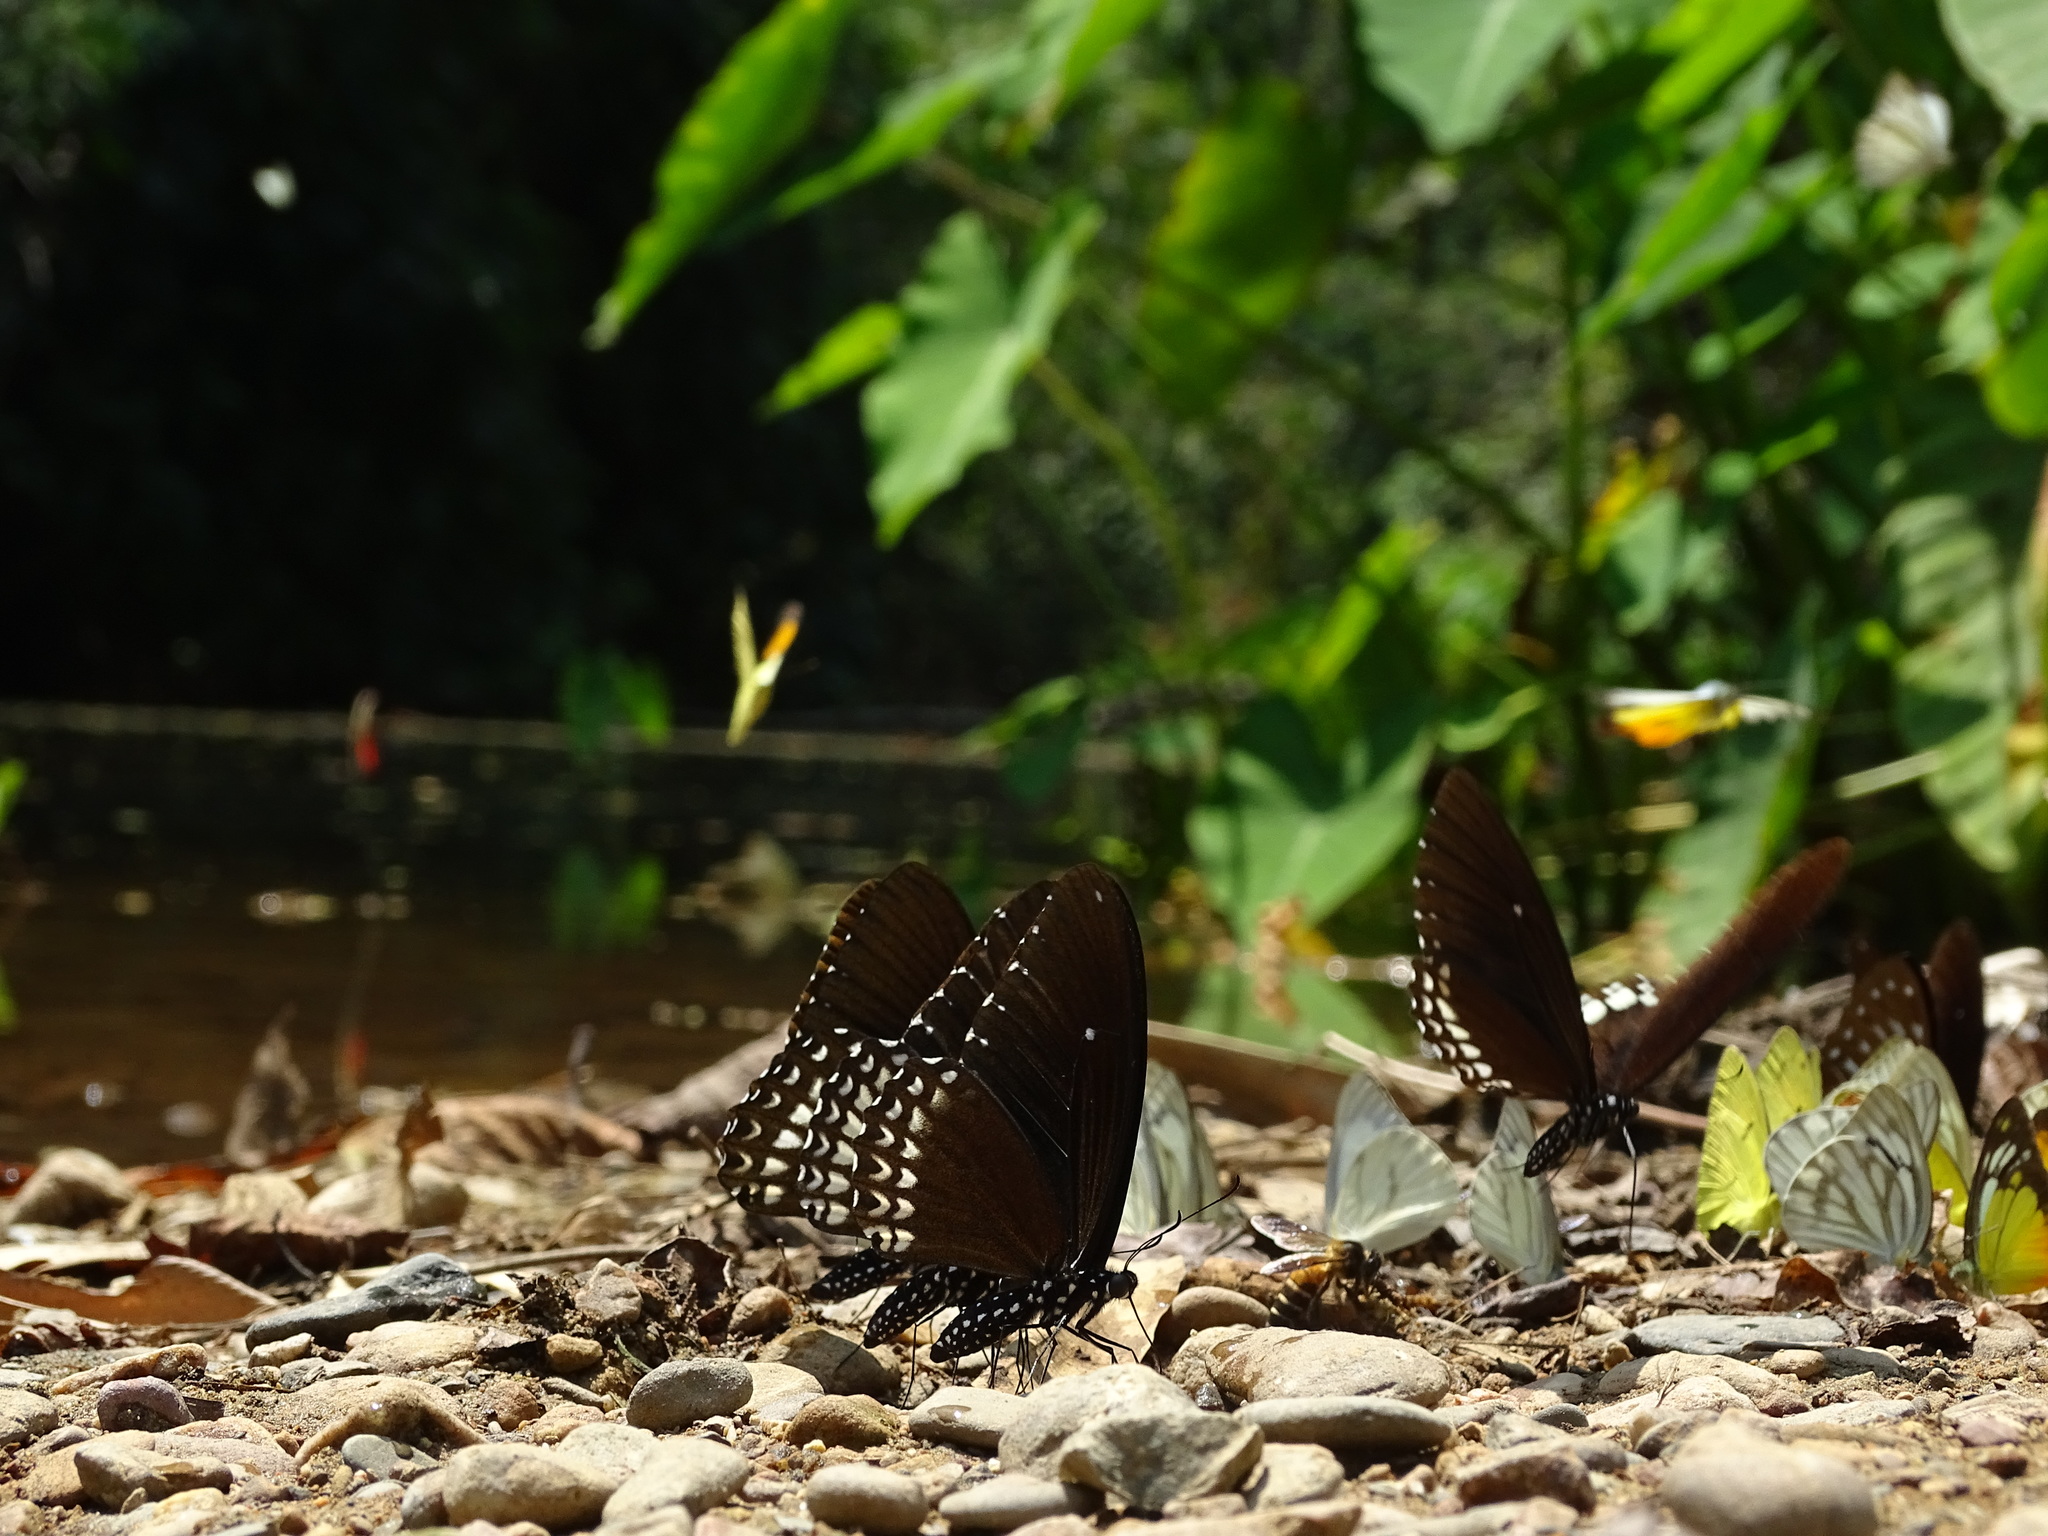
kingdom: Animalia
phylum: Arthropoda
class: Insecta
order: Lepidoptera
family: Papilionidae
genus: Papilio
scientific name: Papilio castor
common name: Common raven
